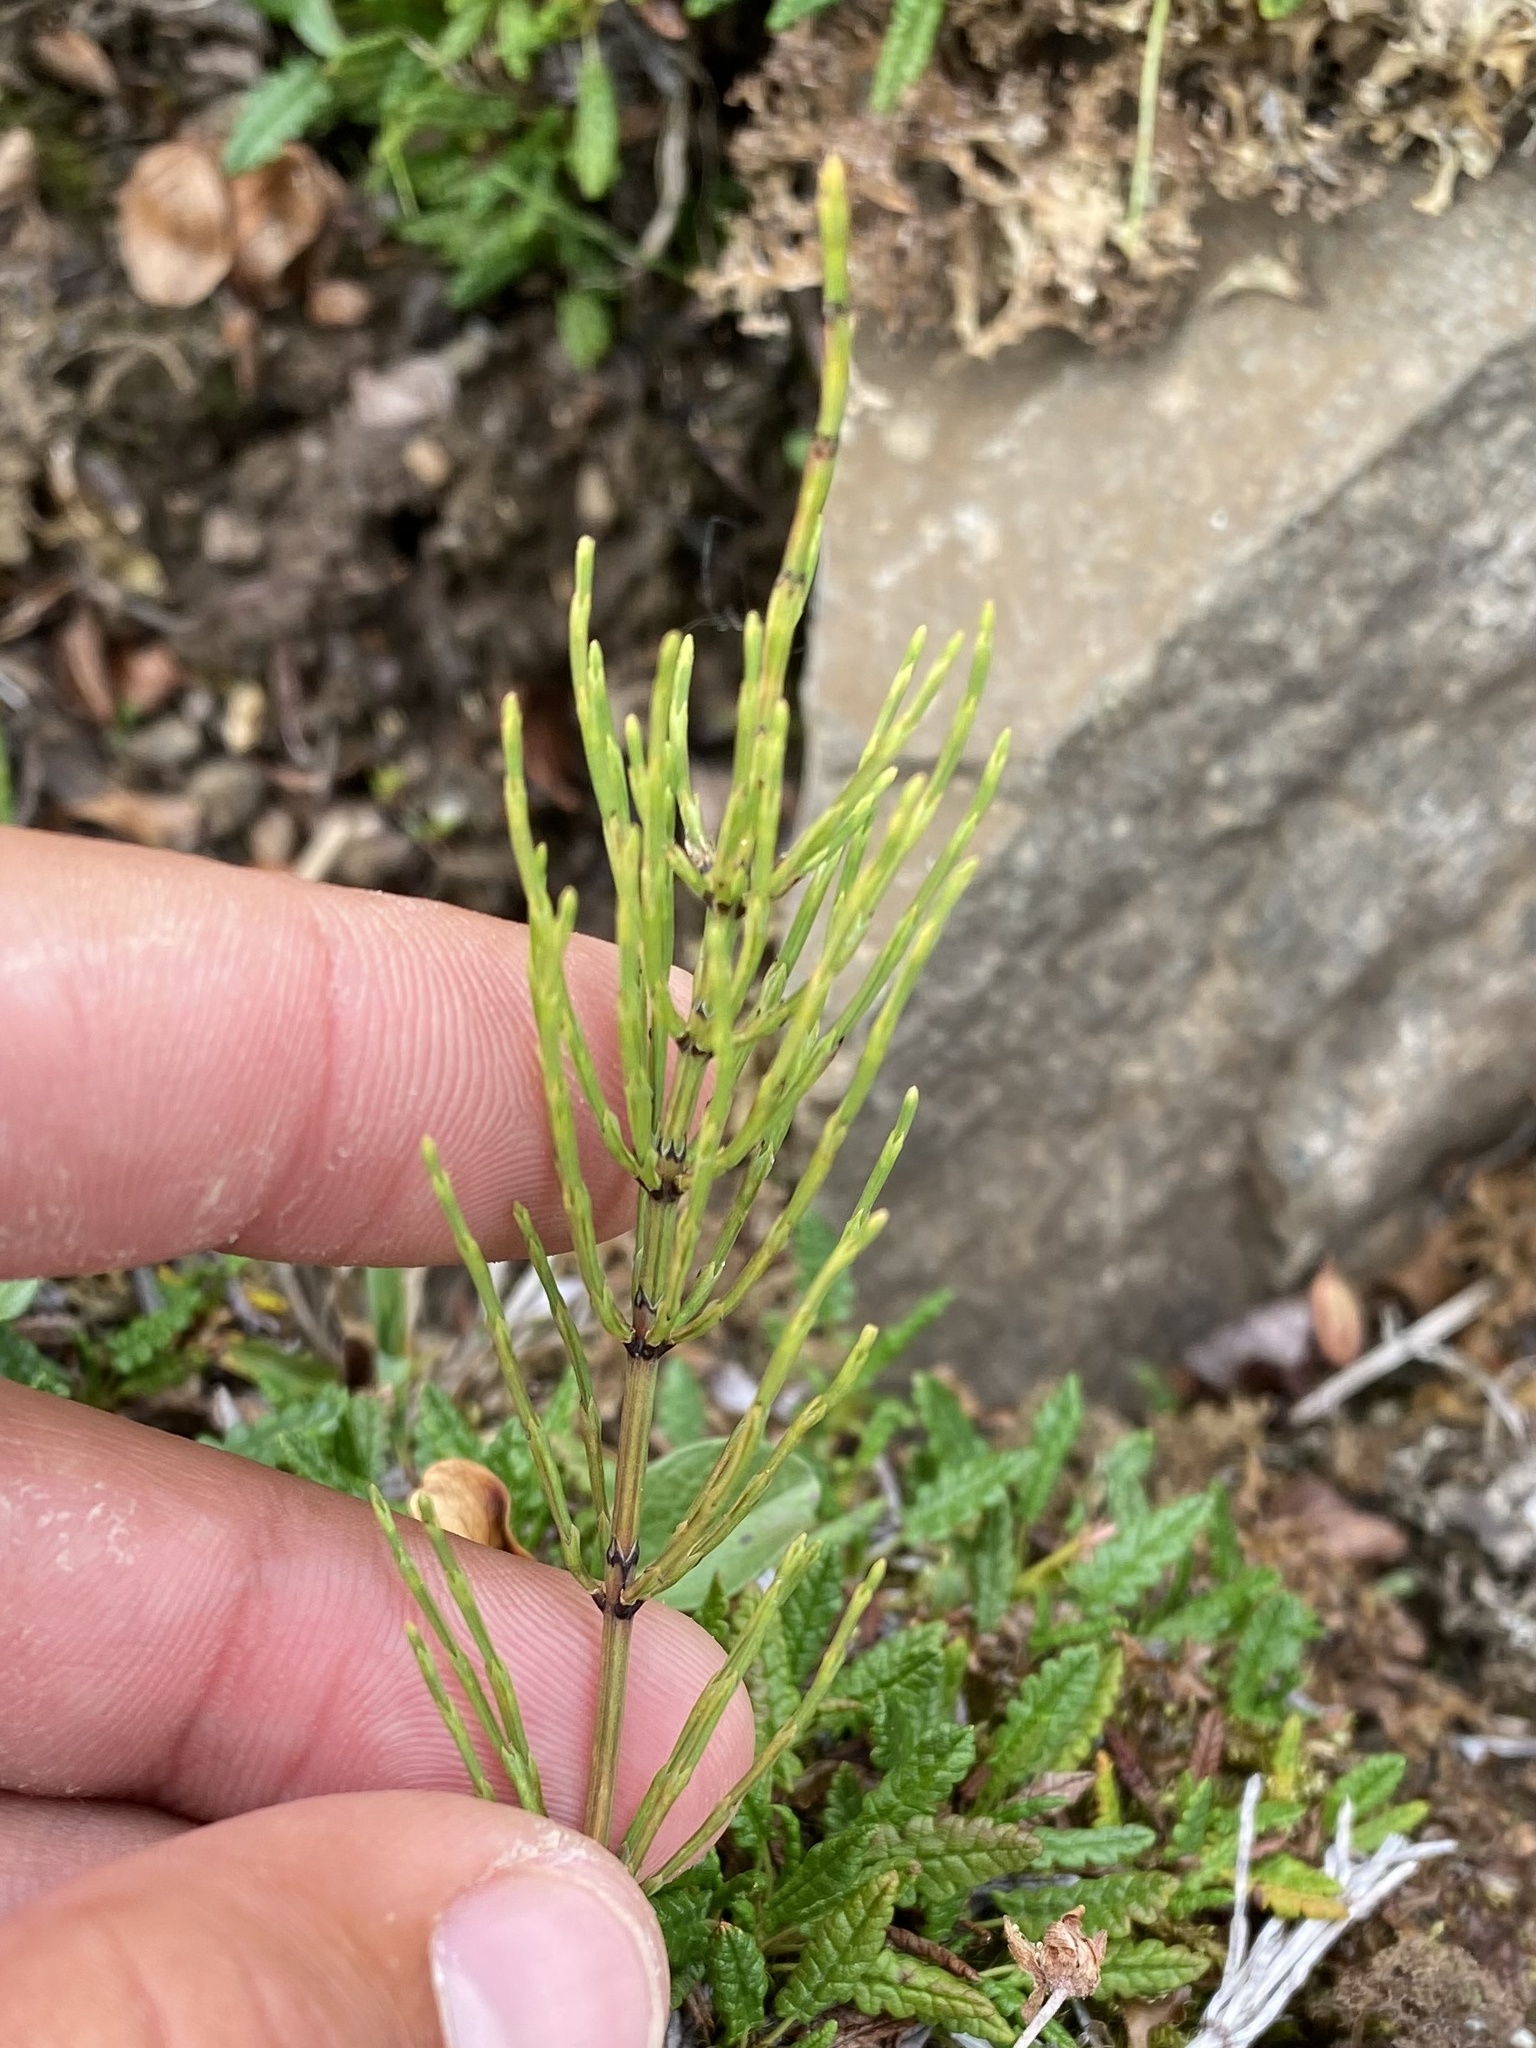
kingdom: Plantae
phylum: Tracheophyta
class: Polypodiopsida
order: Equisetales
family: Equisetaceae
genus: Equisetum
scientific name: Equisetum arvense
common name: Field horsetail
